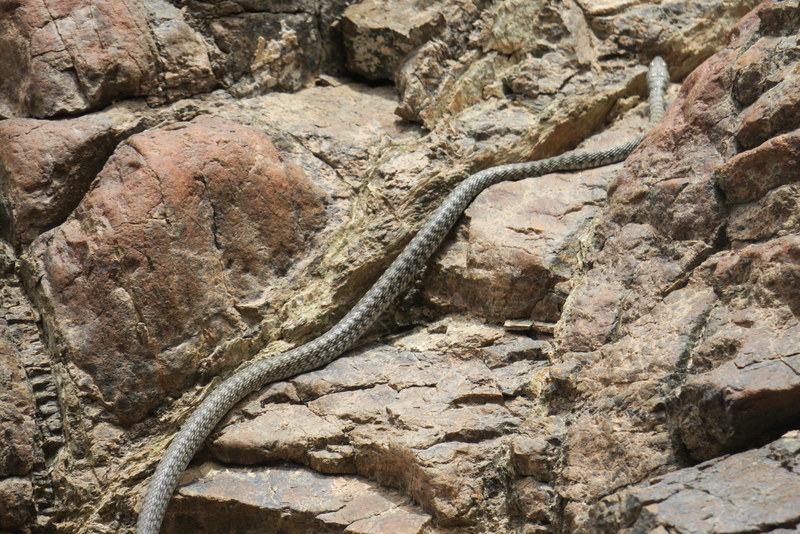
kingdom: Animalia
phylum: Chordata
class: Squamata
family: Colubridae
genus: Platyceps
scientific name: Platyceps rhodorachis
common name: Braid snake
